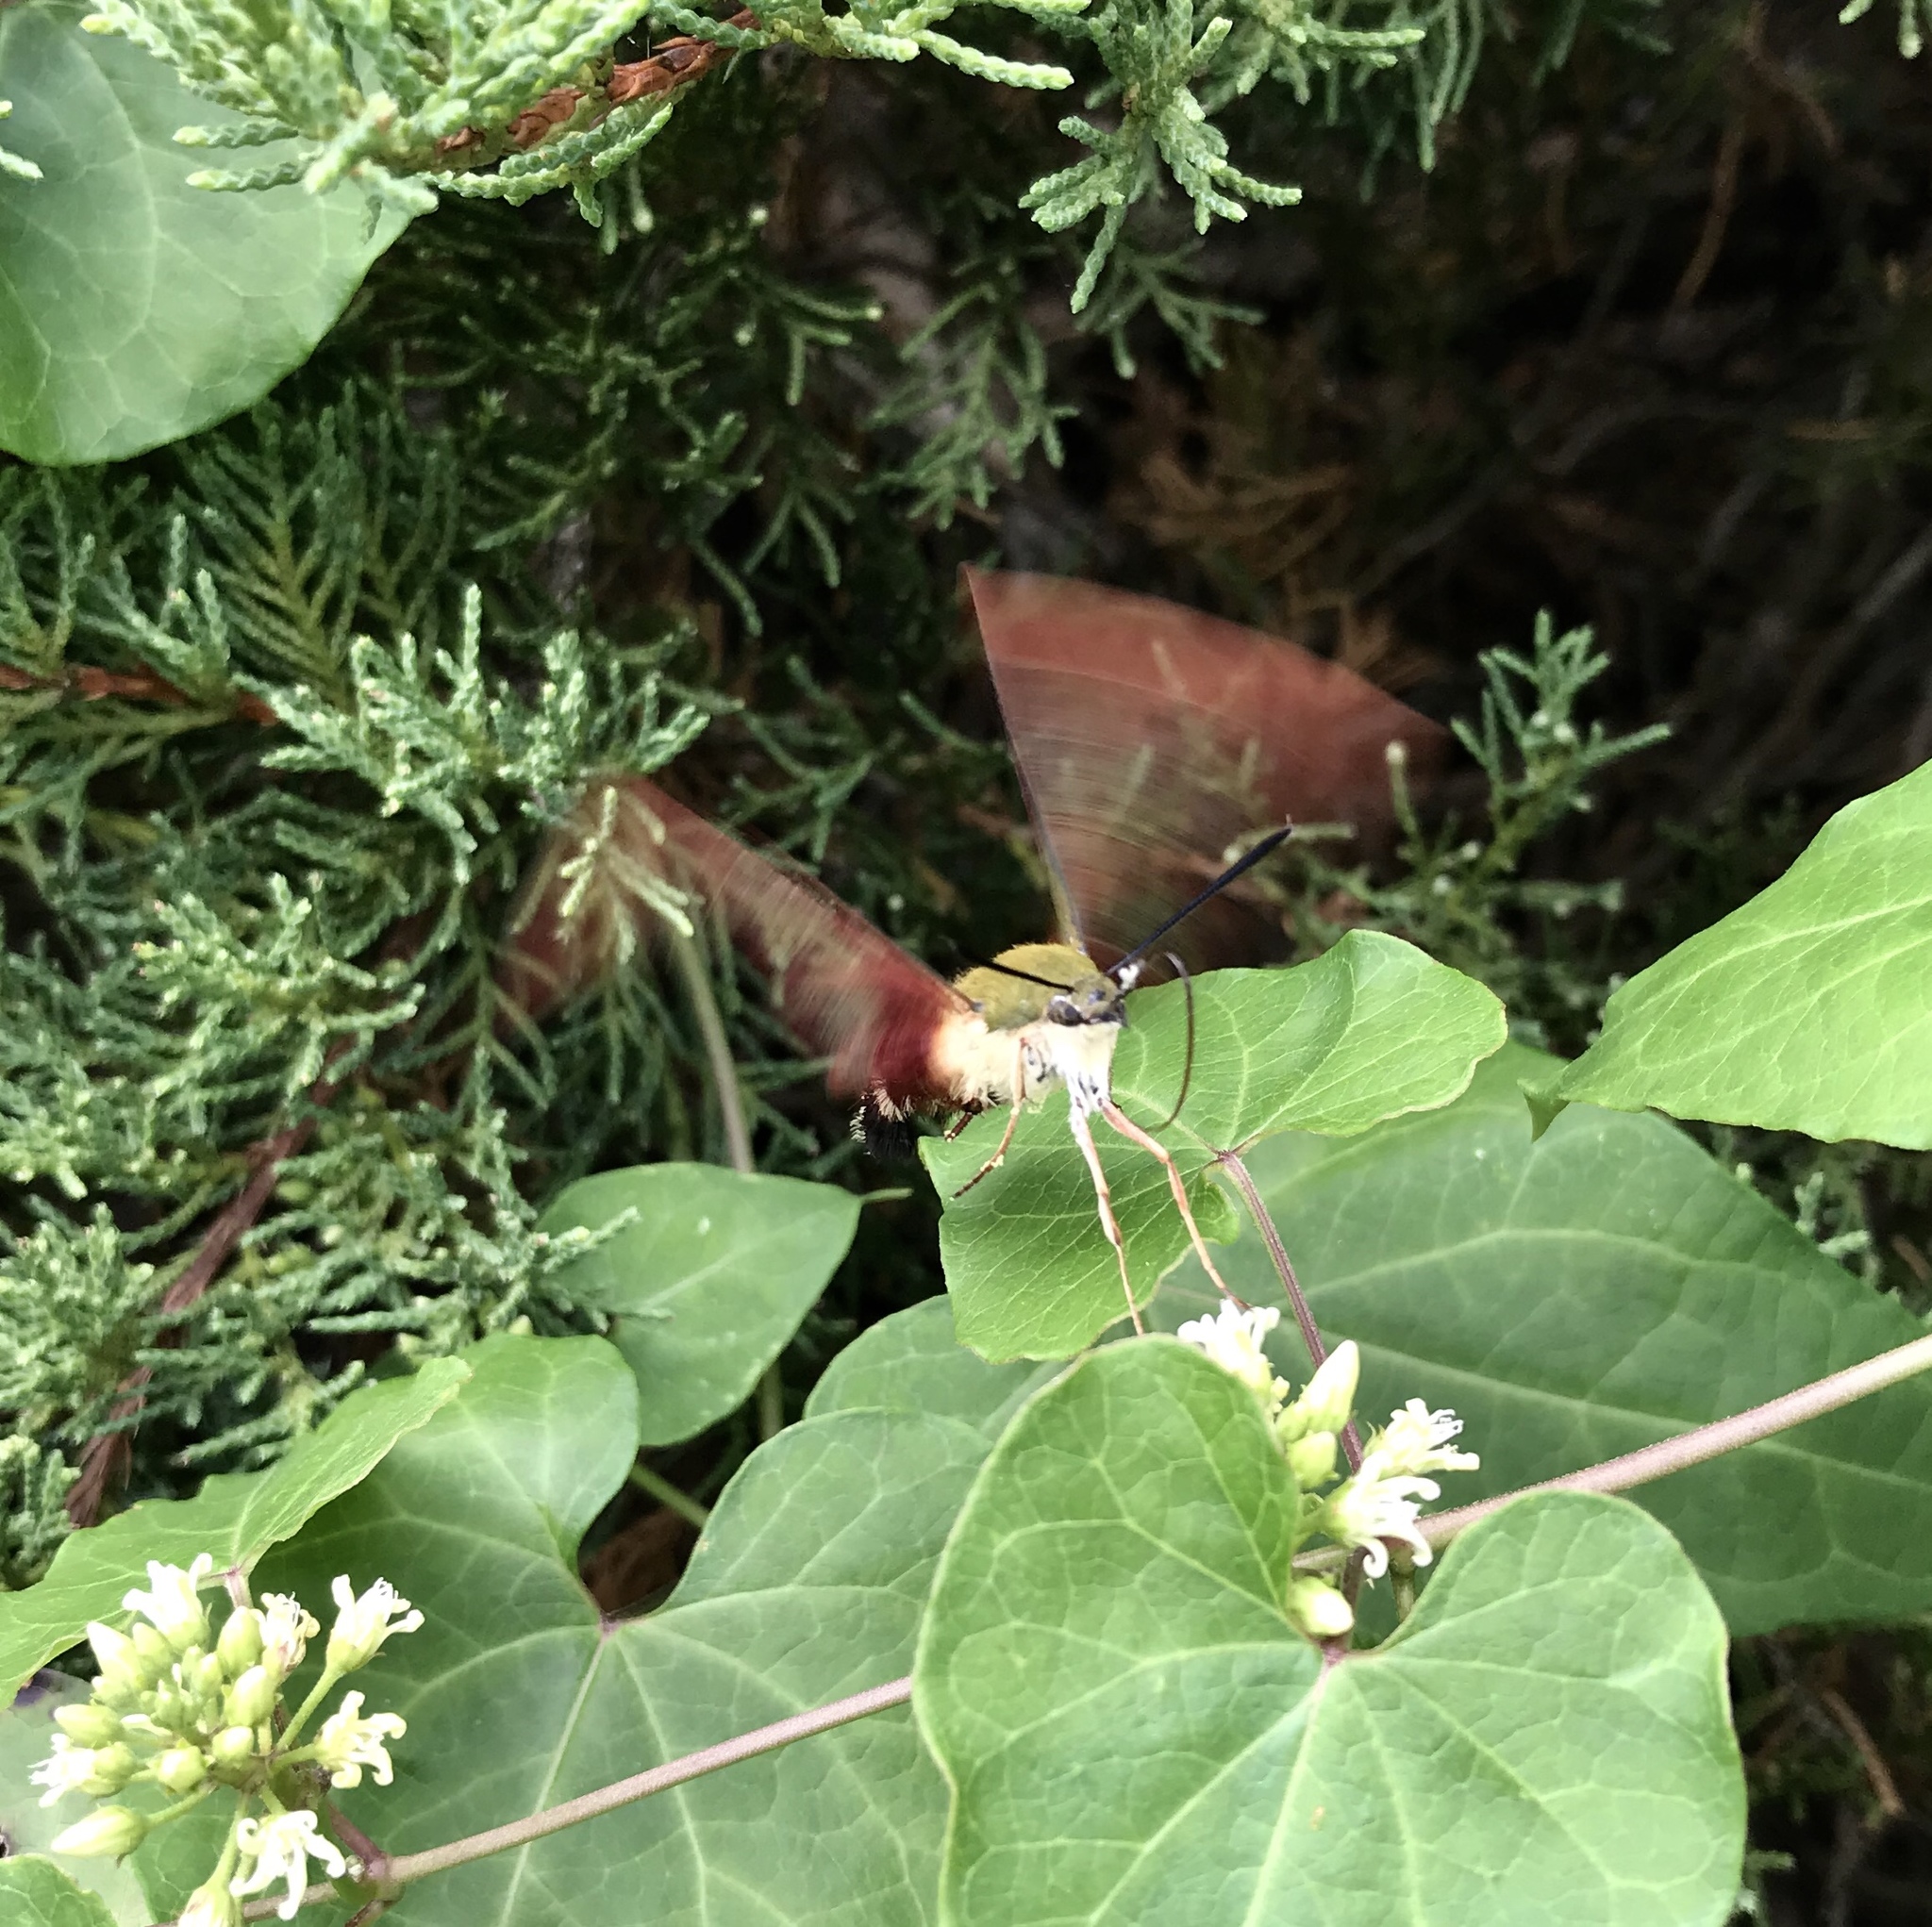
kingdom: Animalia
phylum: Arthropoda
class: Insecta
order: Lepidoptera
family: Sphingidae
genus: Hemaris
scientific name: Hemaris thysbe
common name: Common clear-wing
